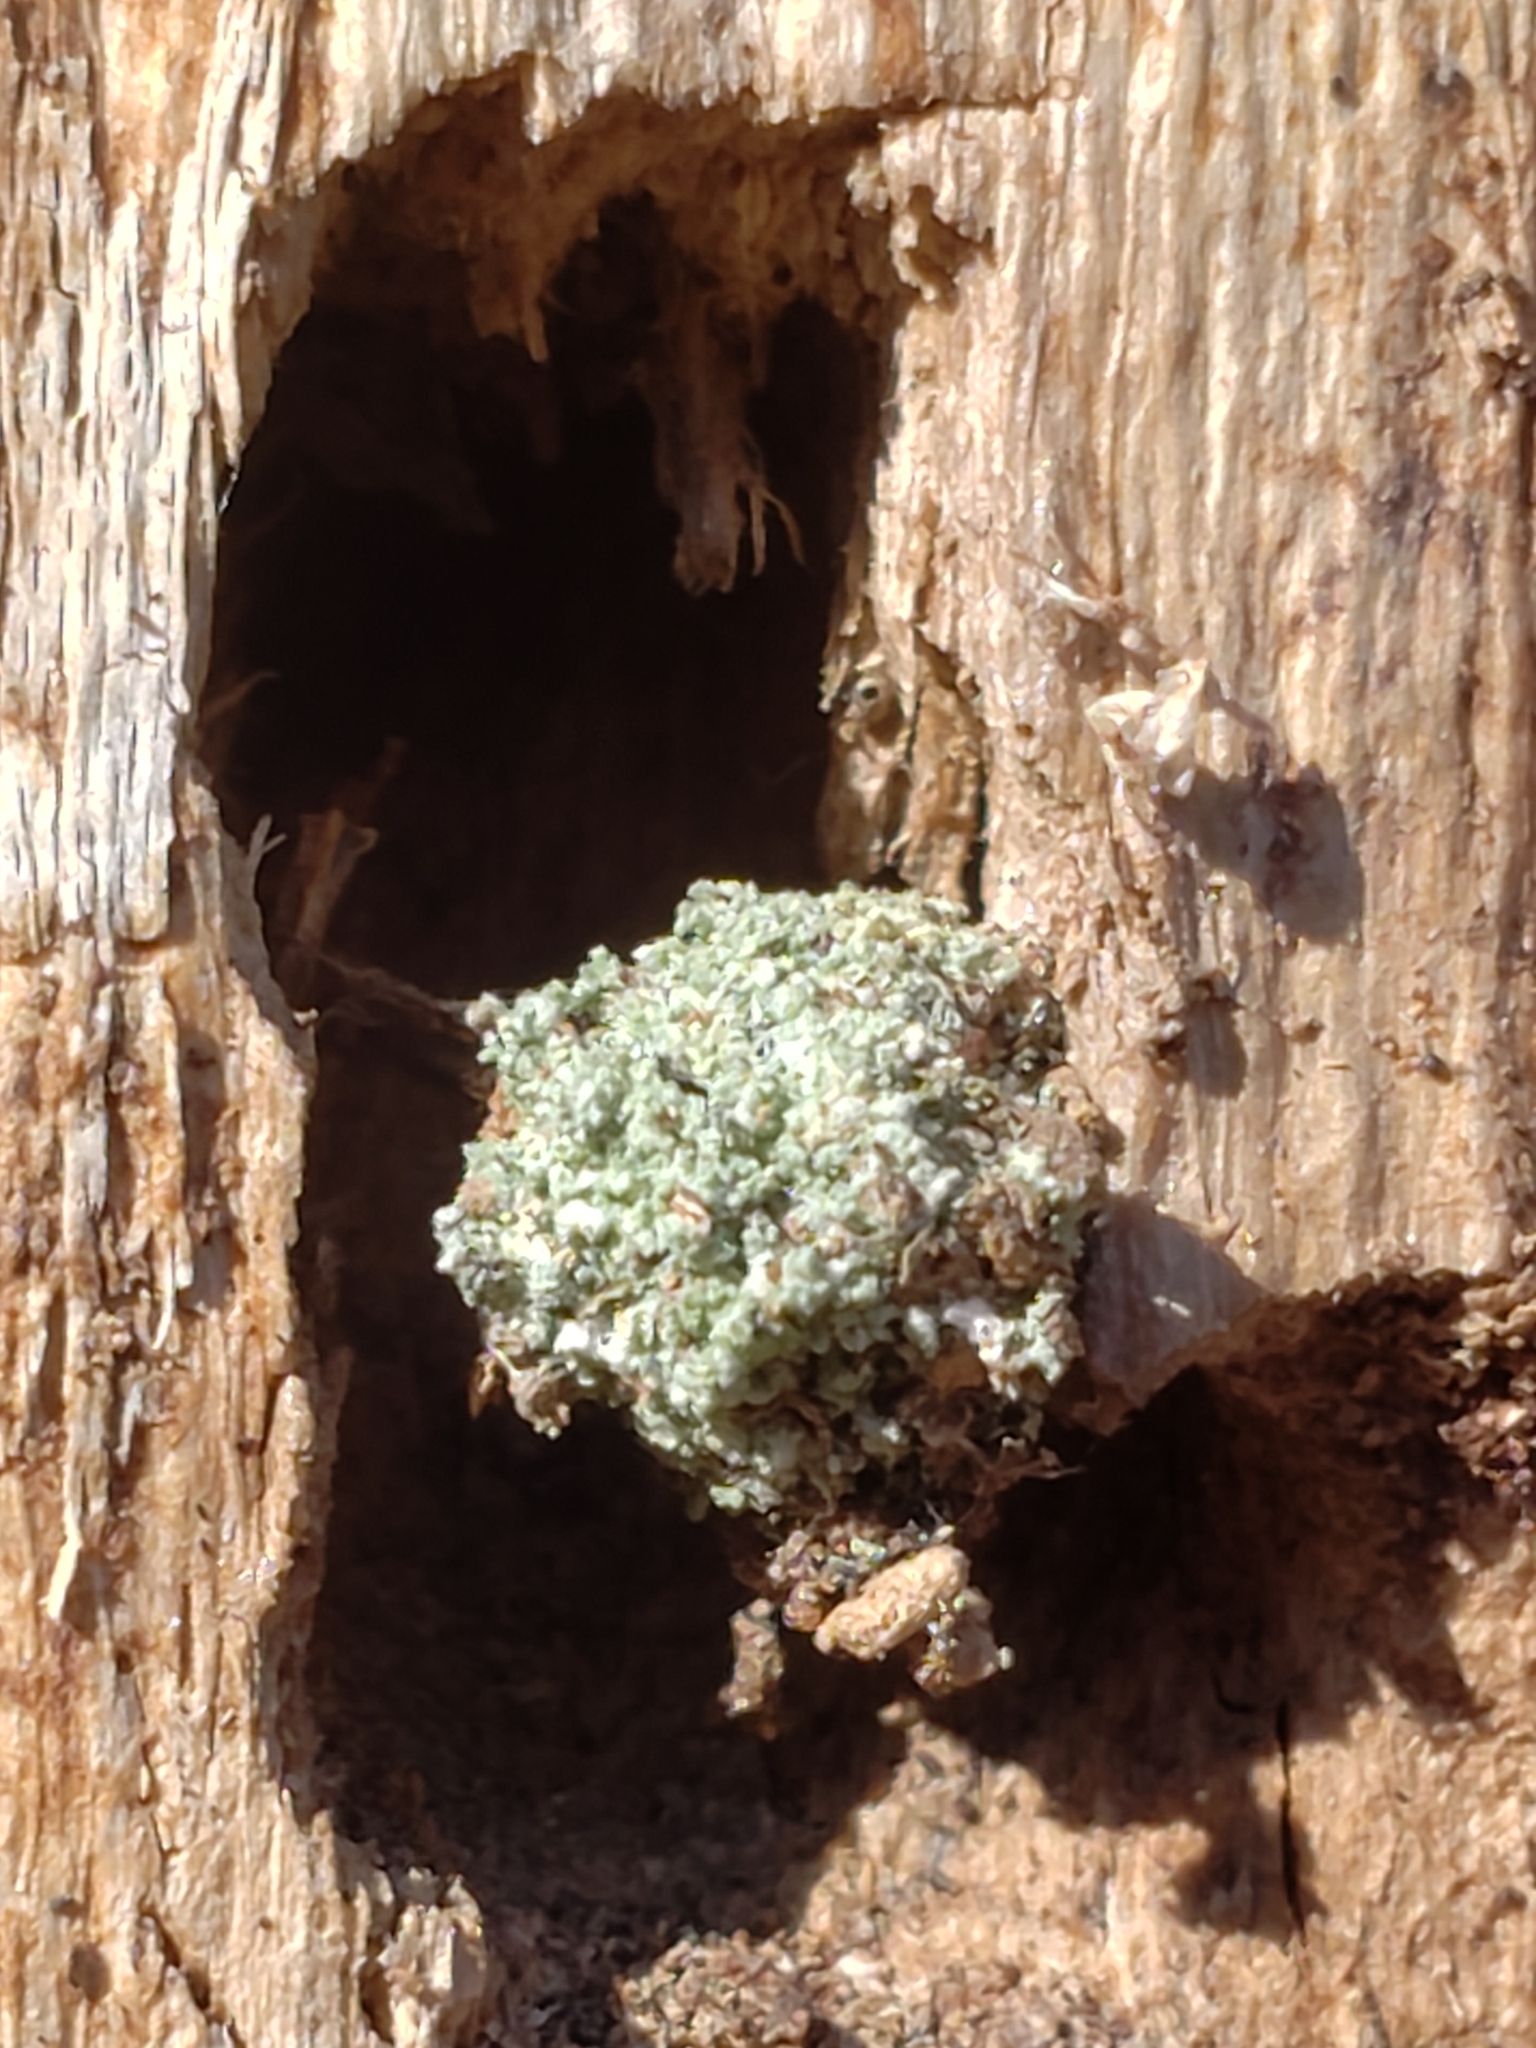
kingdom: Animalia
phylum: Arthropoda
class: Insecta
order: Neuroptera
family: Chrysopidae
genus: Leucochrysa
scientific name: Leucochrysa pavida
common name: Lichen-carrying green lacewing
